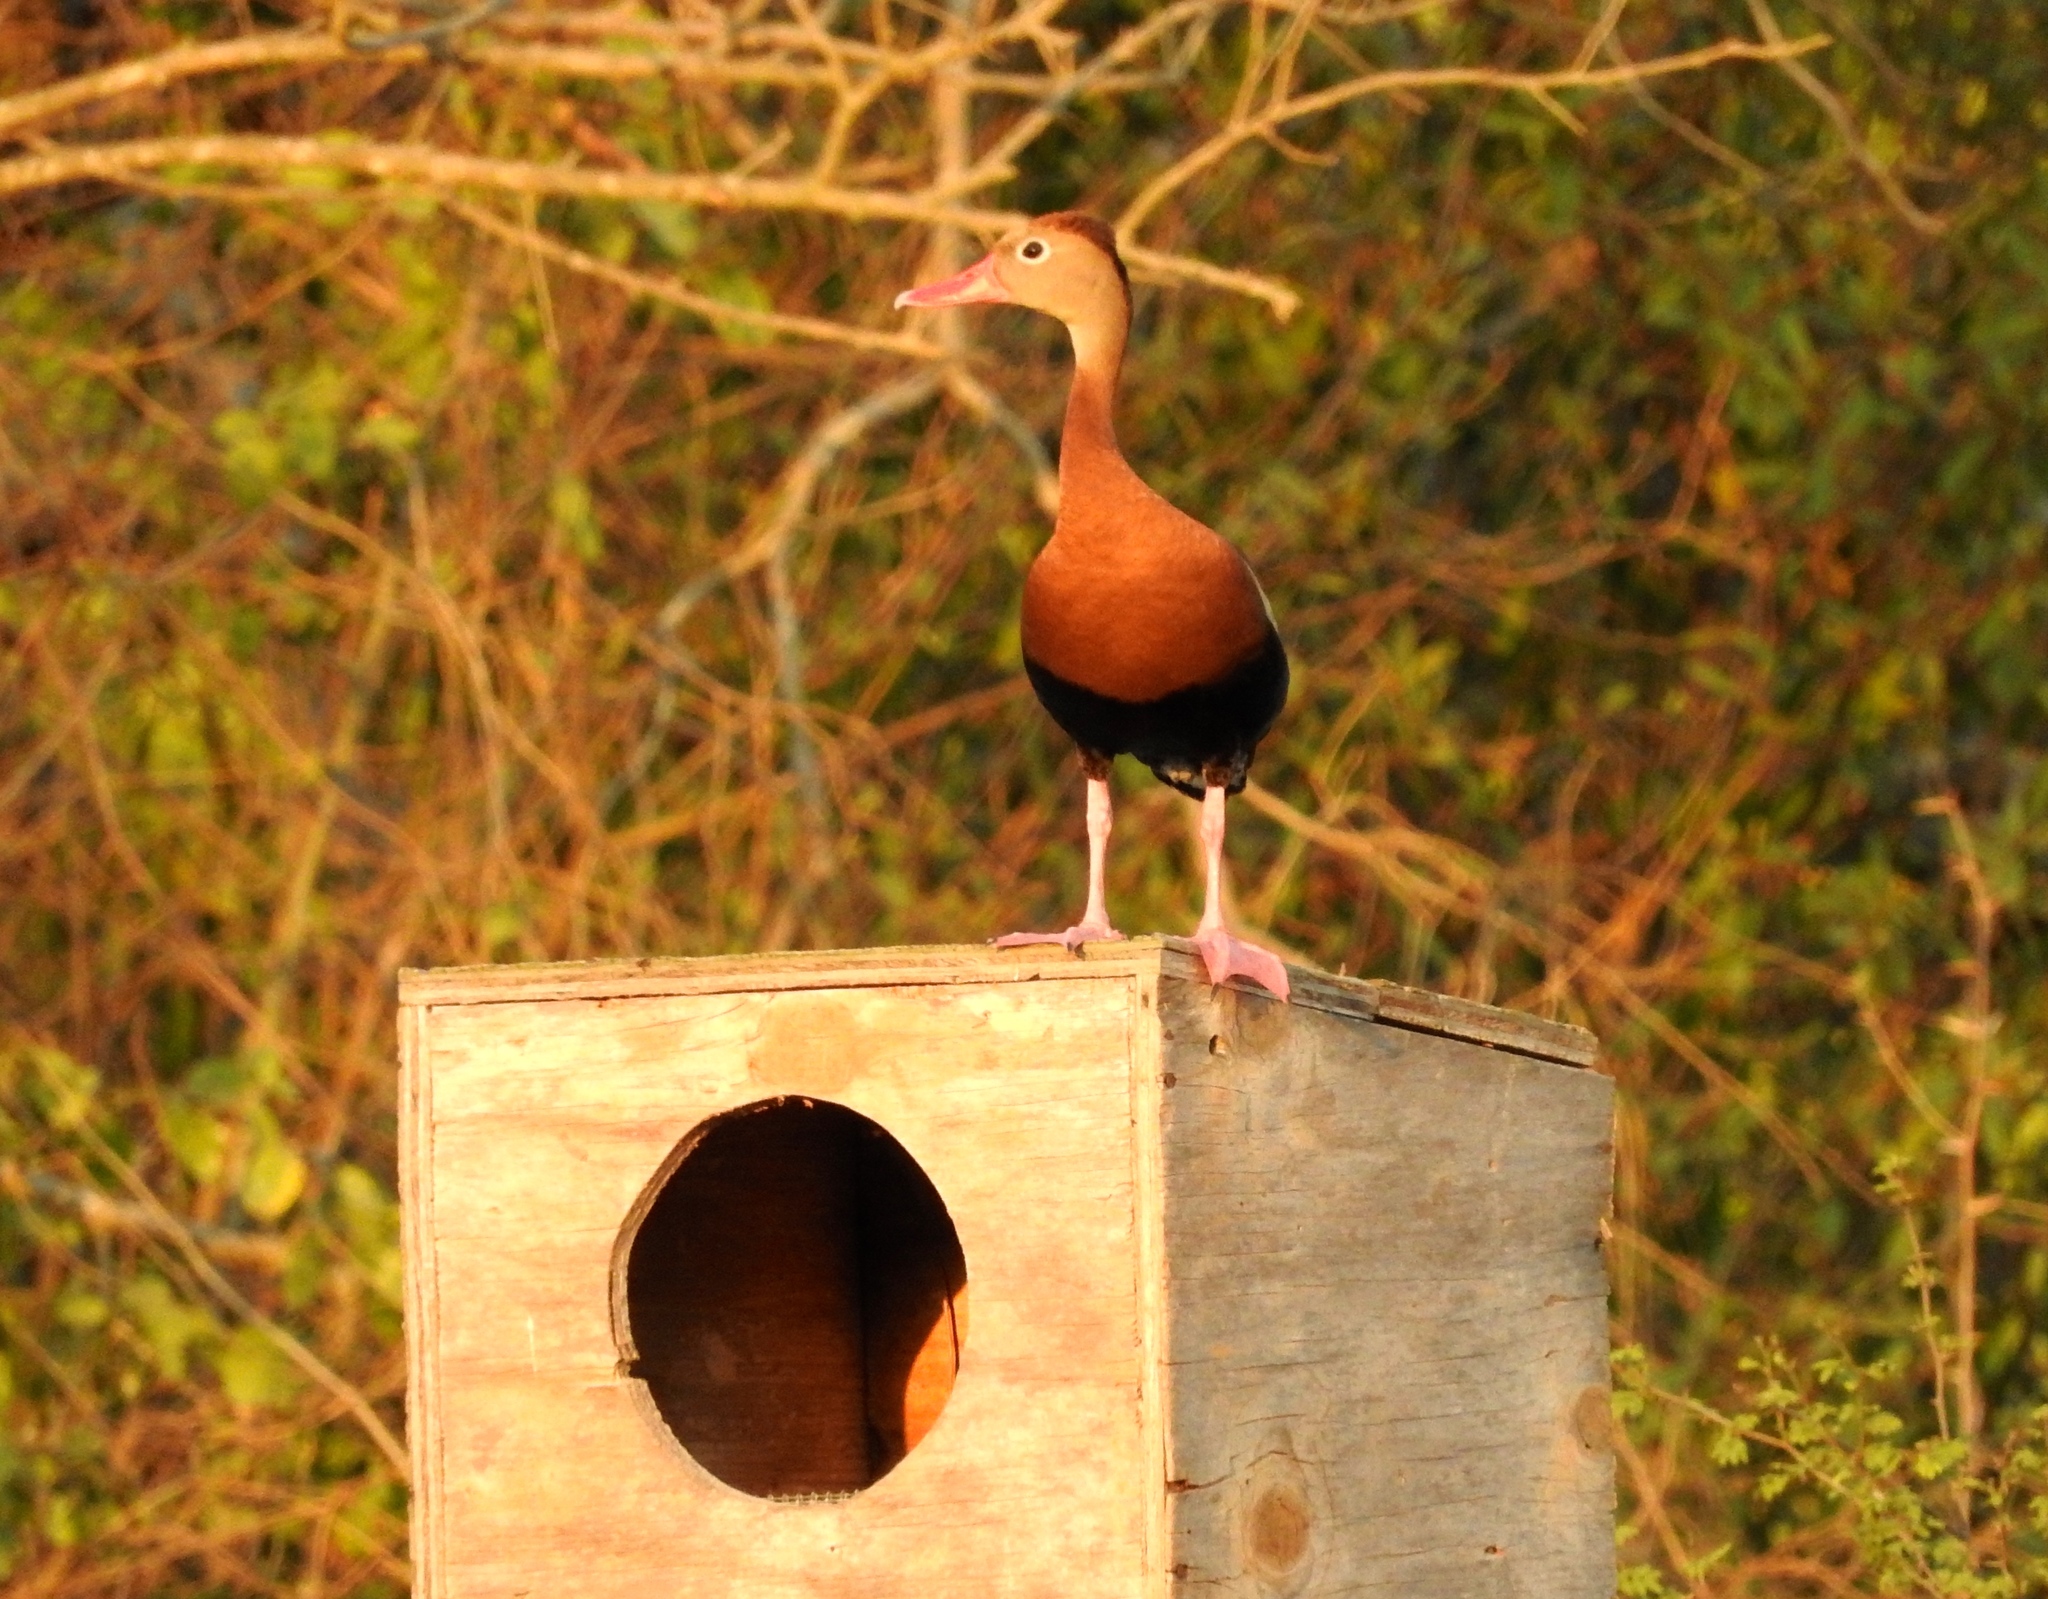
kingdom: Animalia
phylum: Chordata
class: Aves
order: Anseriformes
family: Anatidae
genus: Dendrocygna
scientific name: Dendrocygna autumnalis
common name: Black-bellied whistling duck
